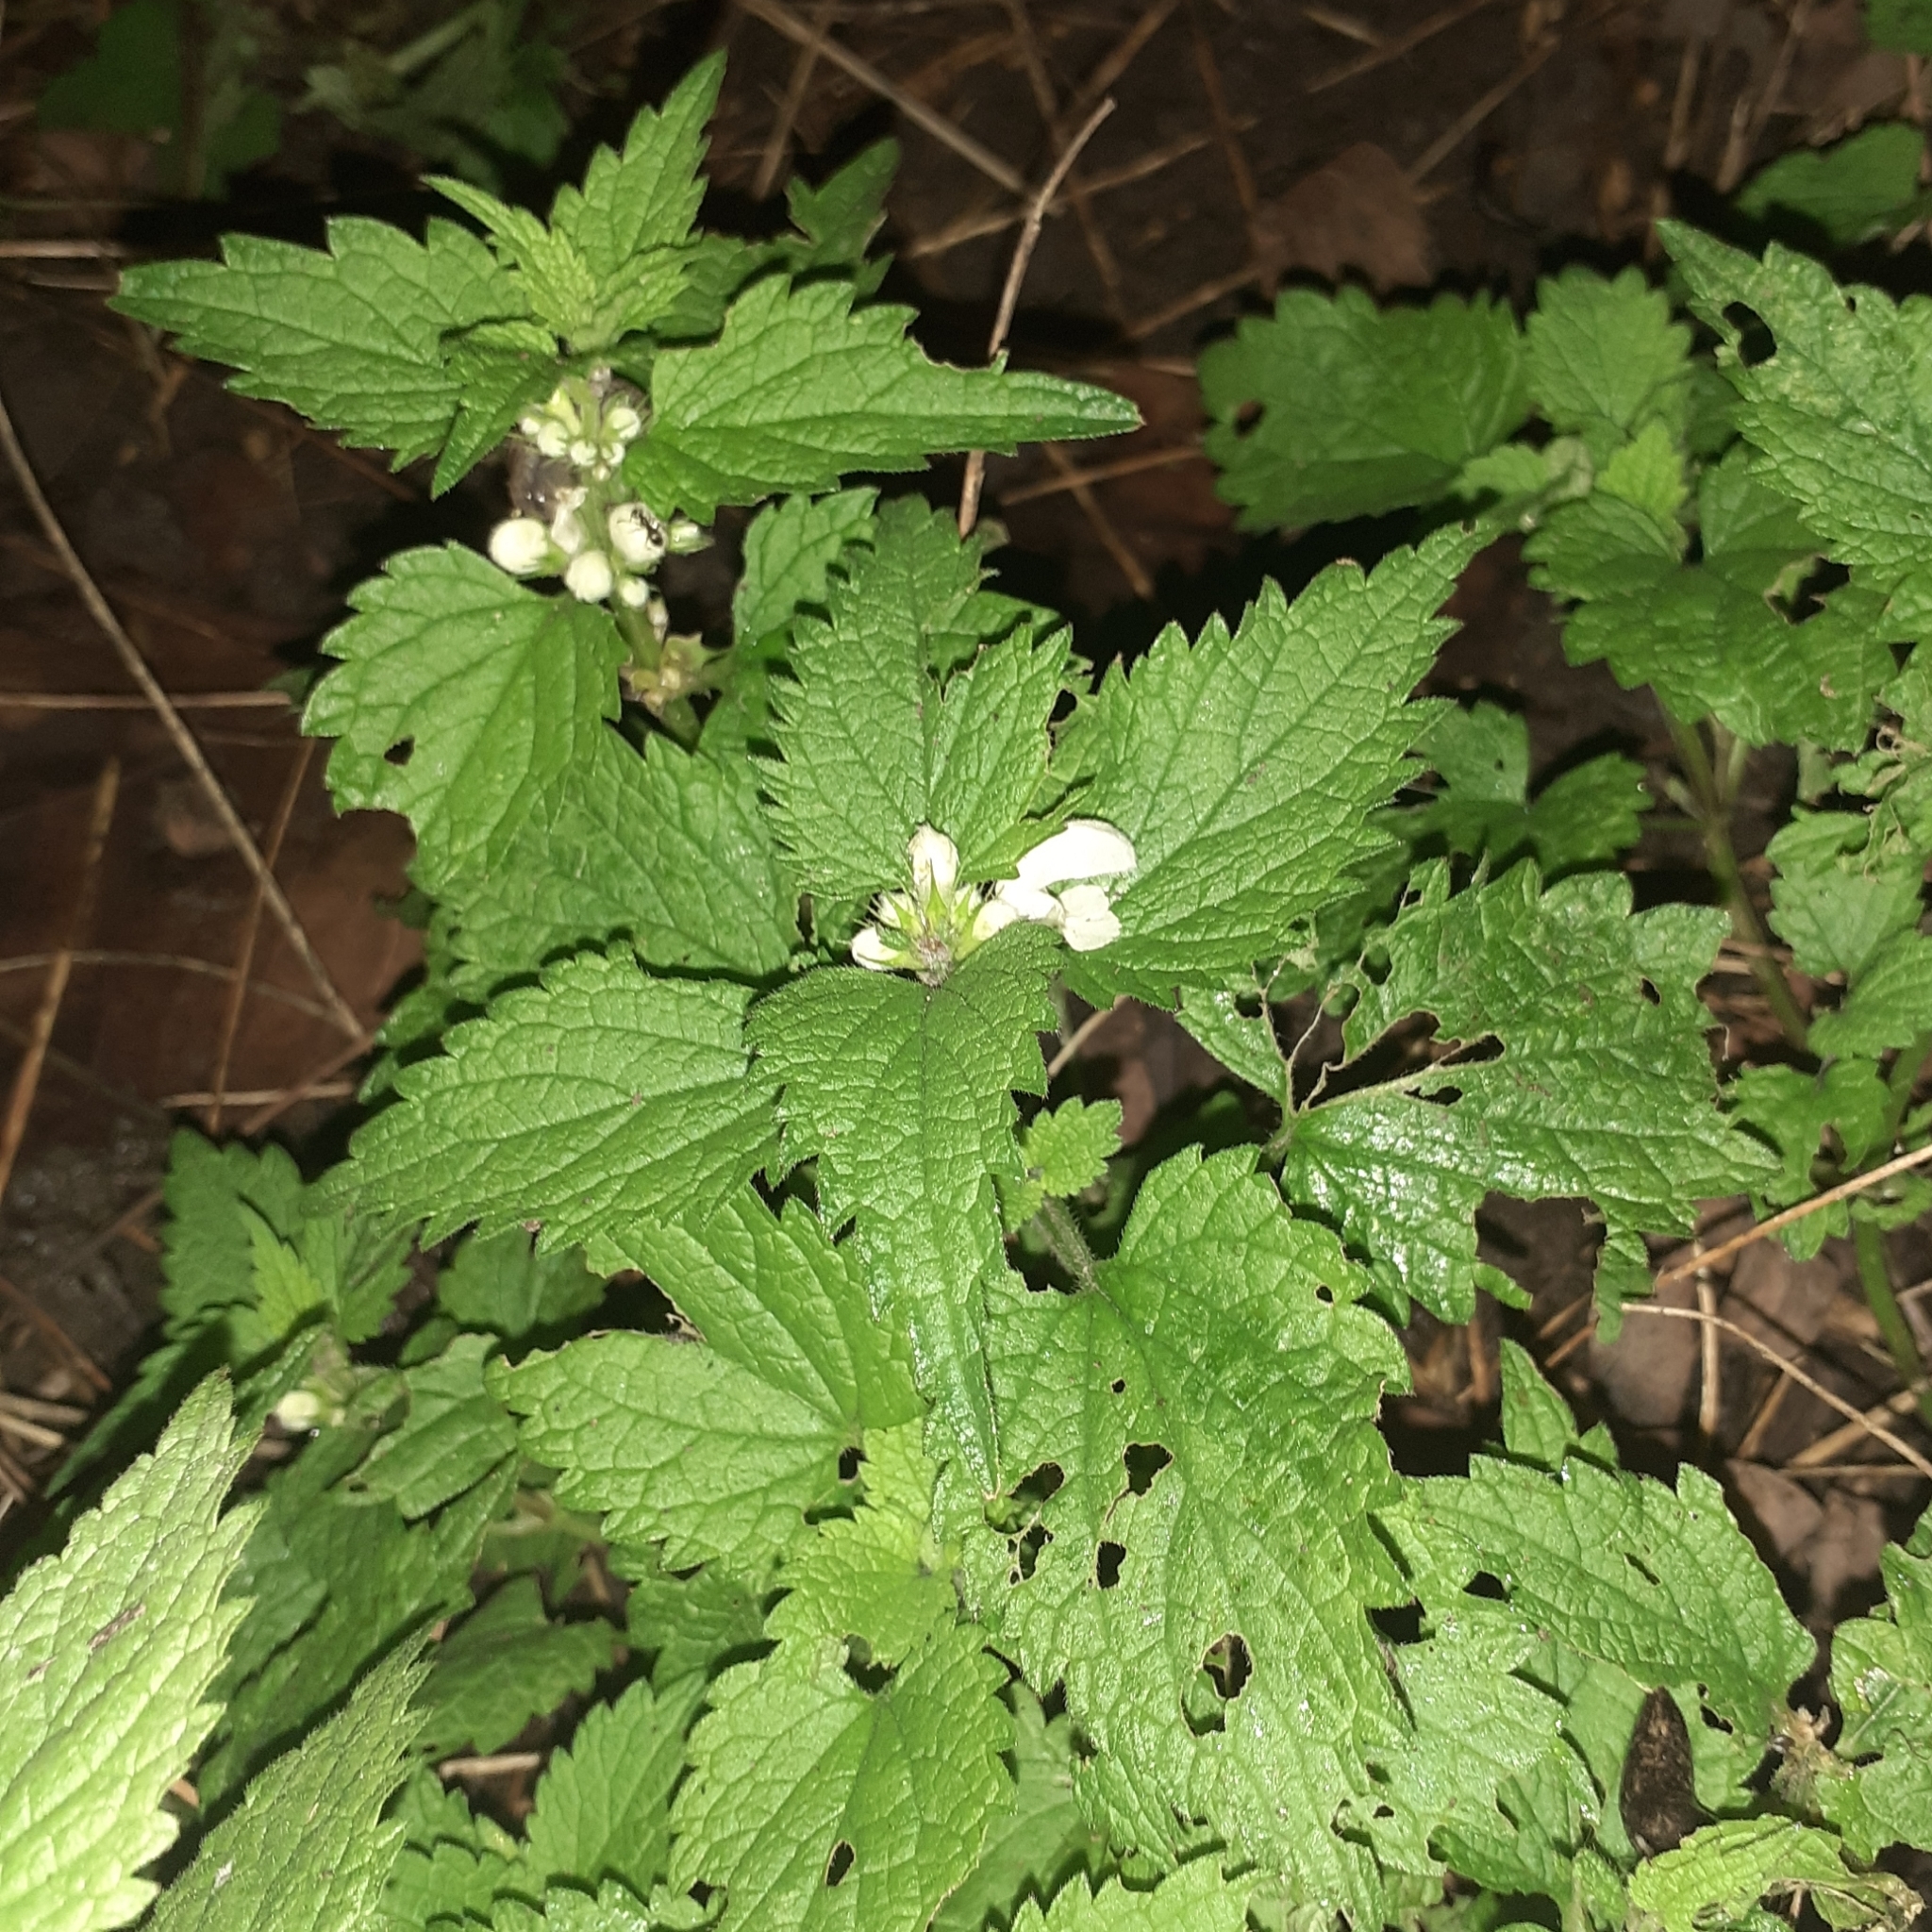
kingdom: Plantae
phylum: Tracheophyta
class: Magnoliopsida
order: Lamiales
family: Lamiaceae
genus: Lamium
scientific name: Lamium album
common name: White dead-nettle
